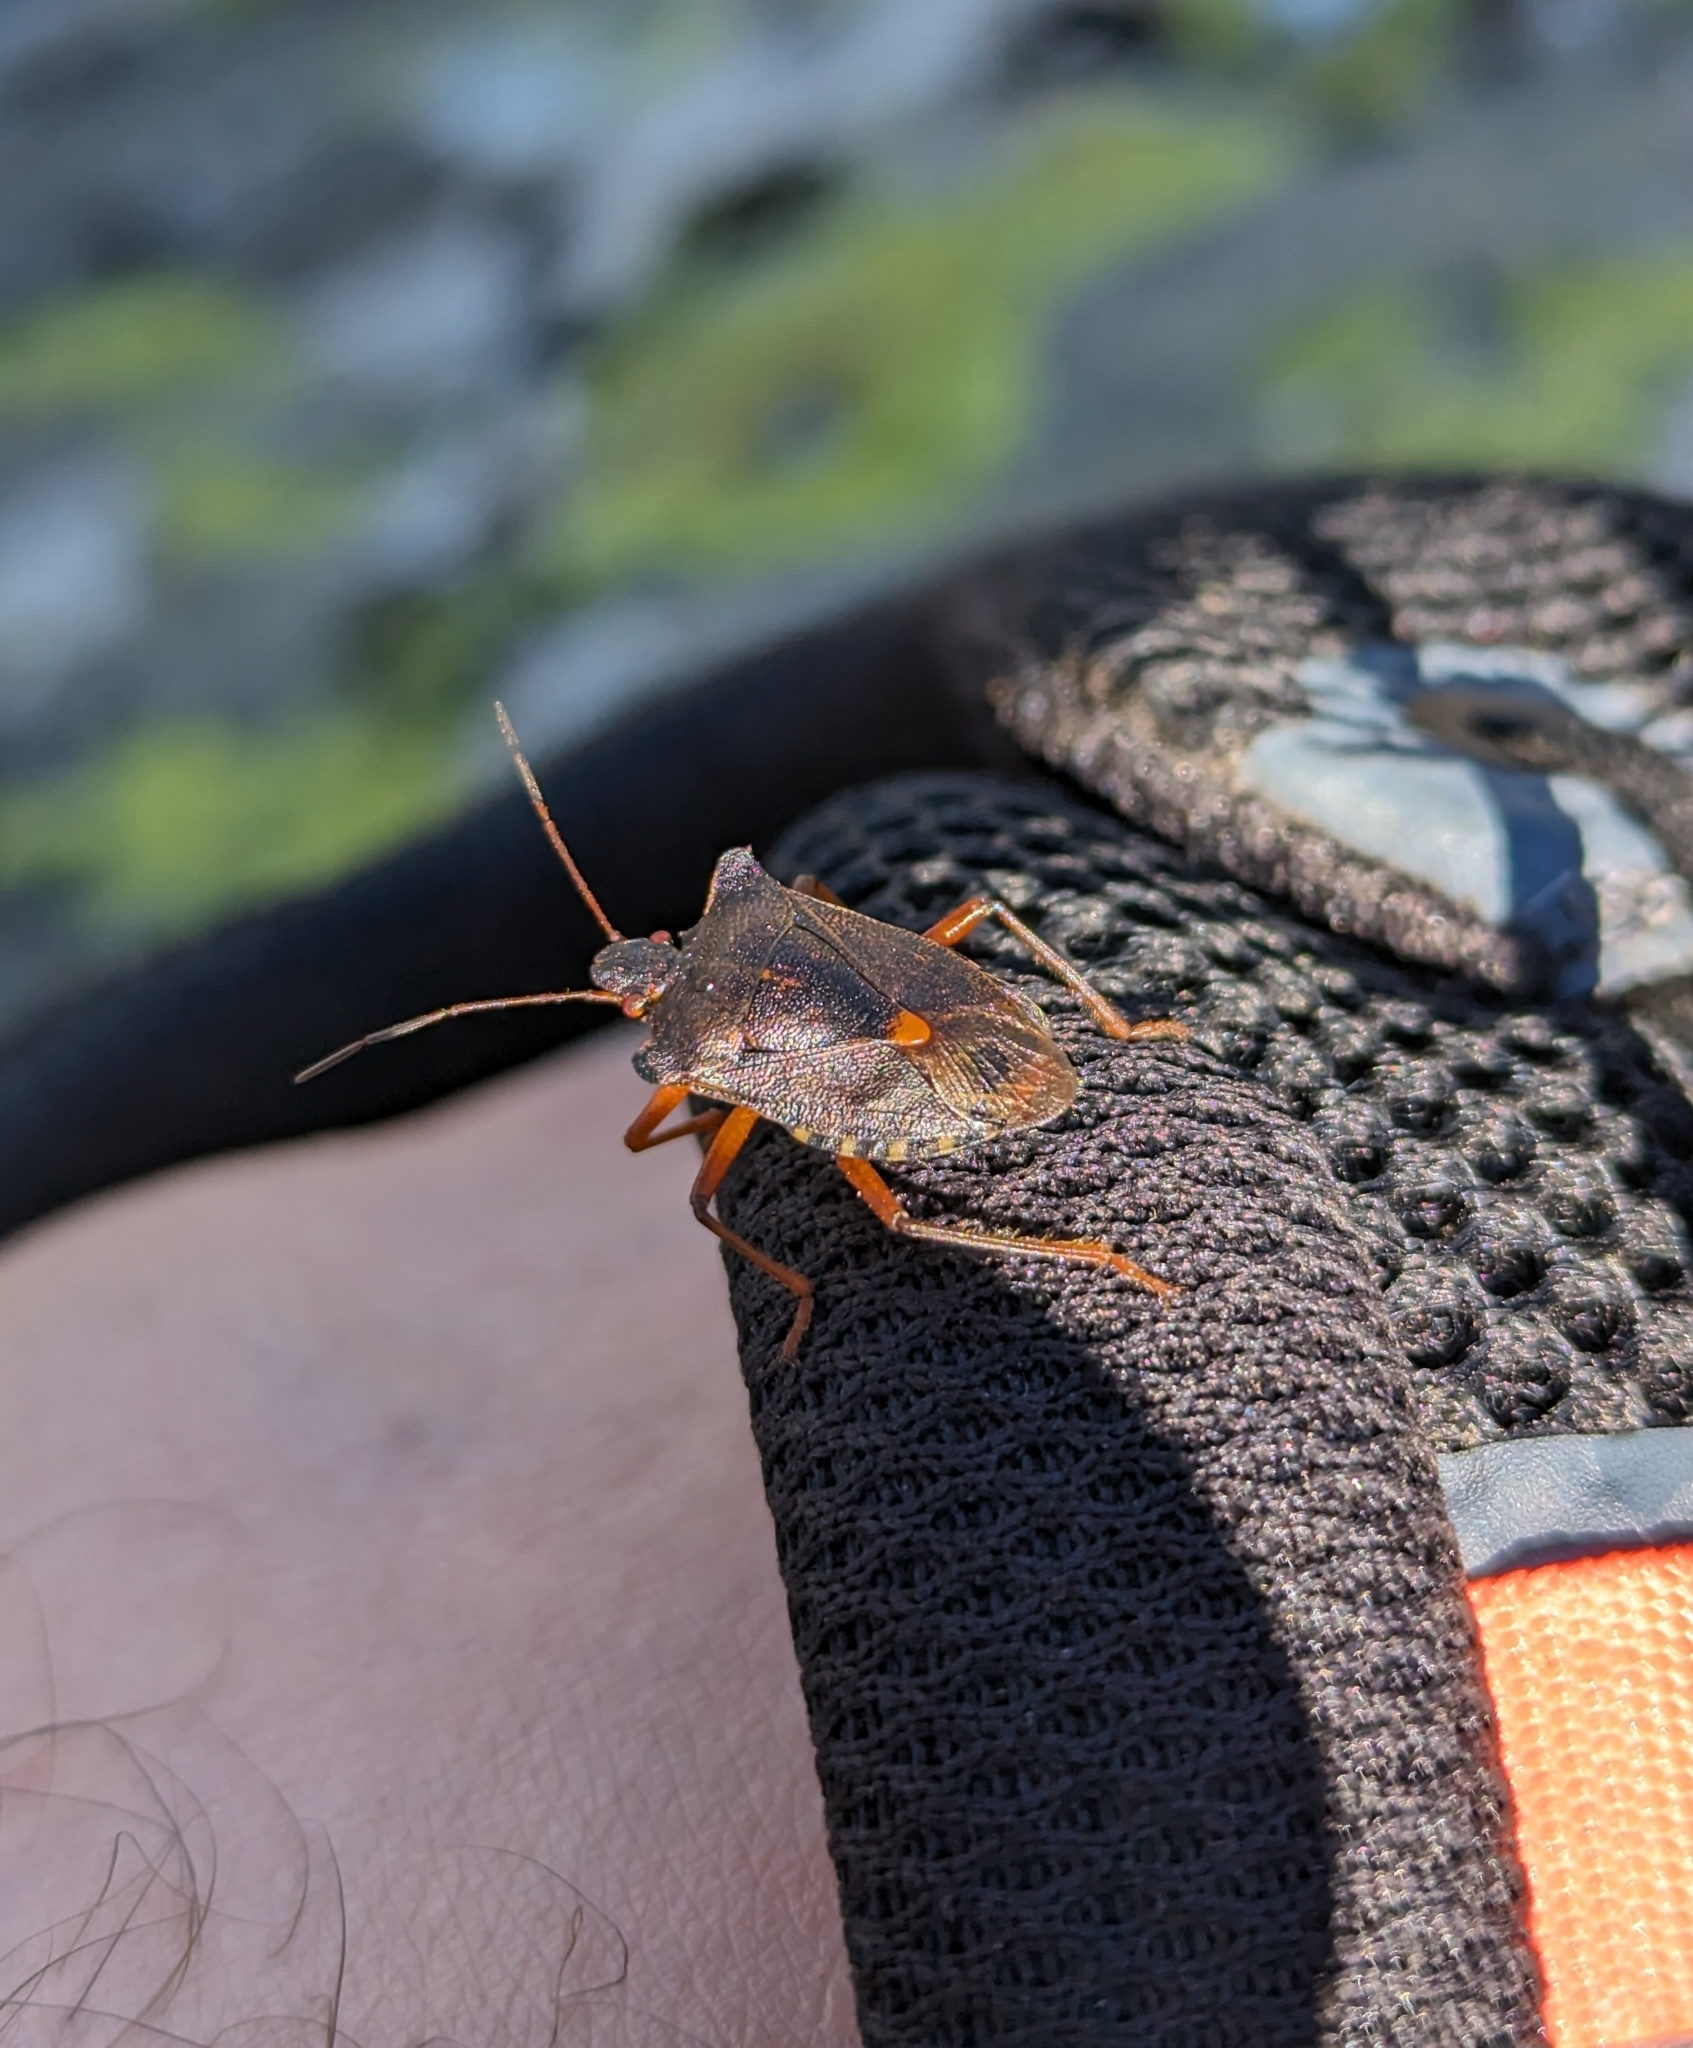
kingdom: Animalia
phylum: Arthropoda
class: Insecta
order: Hemiptera
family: Pentatomidae
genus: Pentatoma
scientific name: Pentatoma rufipes
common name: Forest bug
